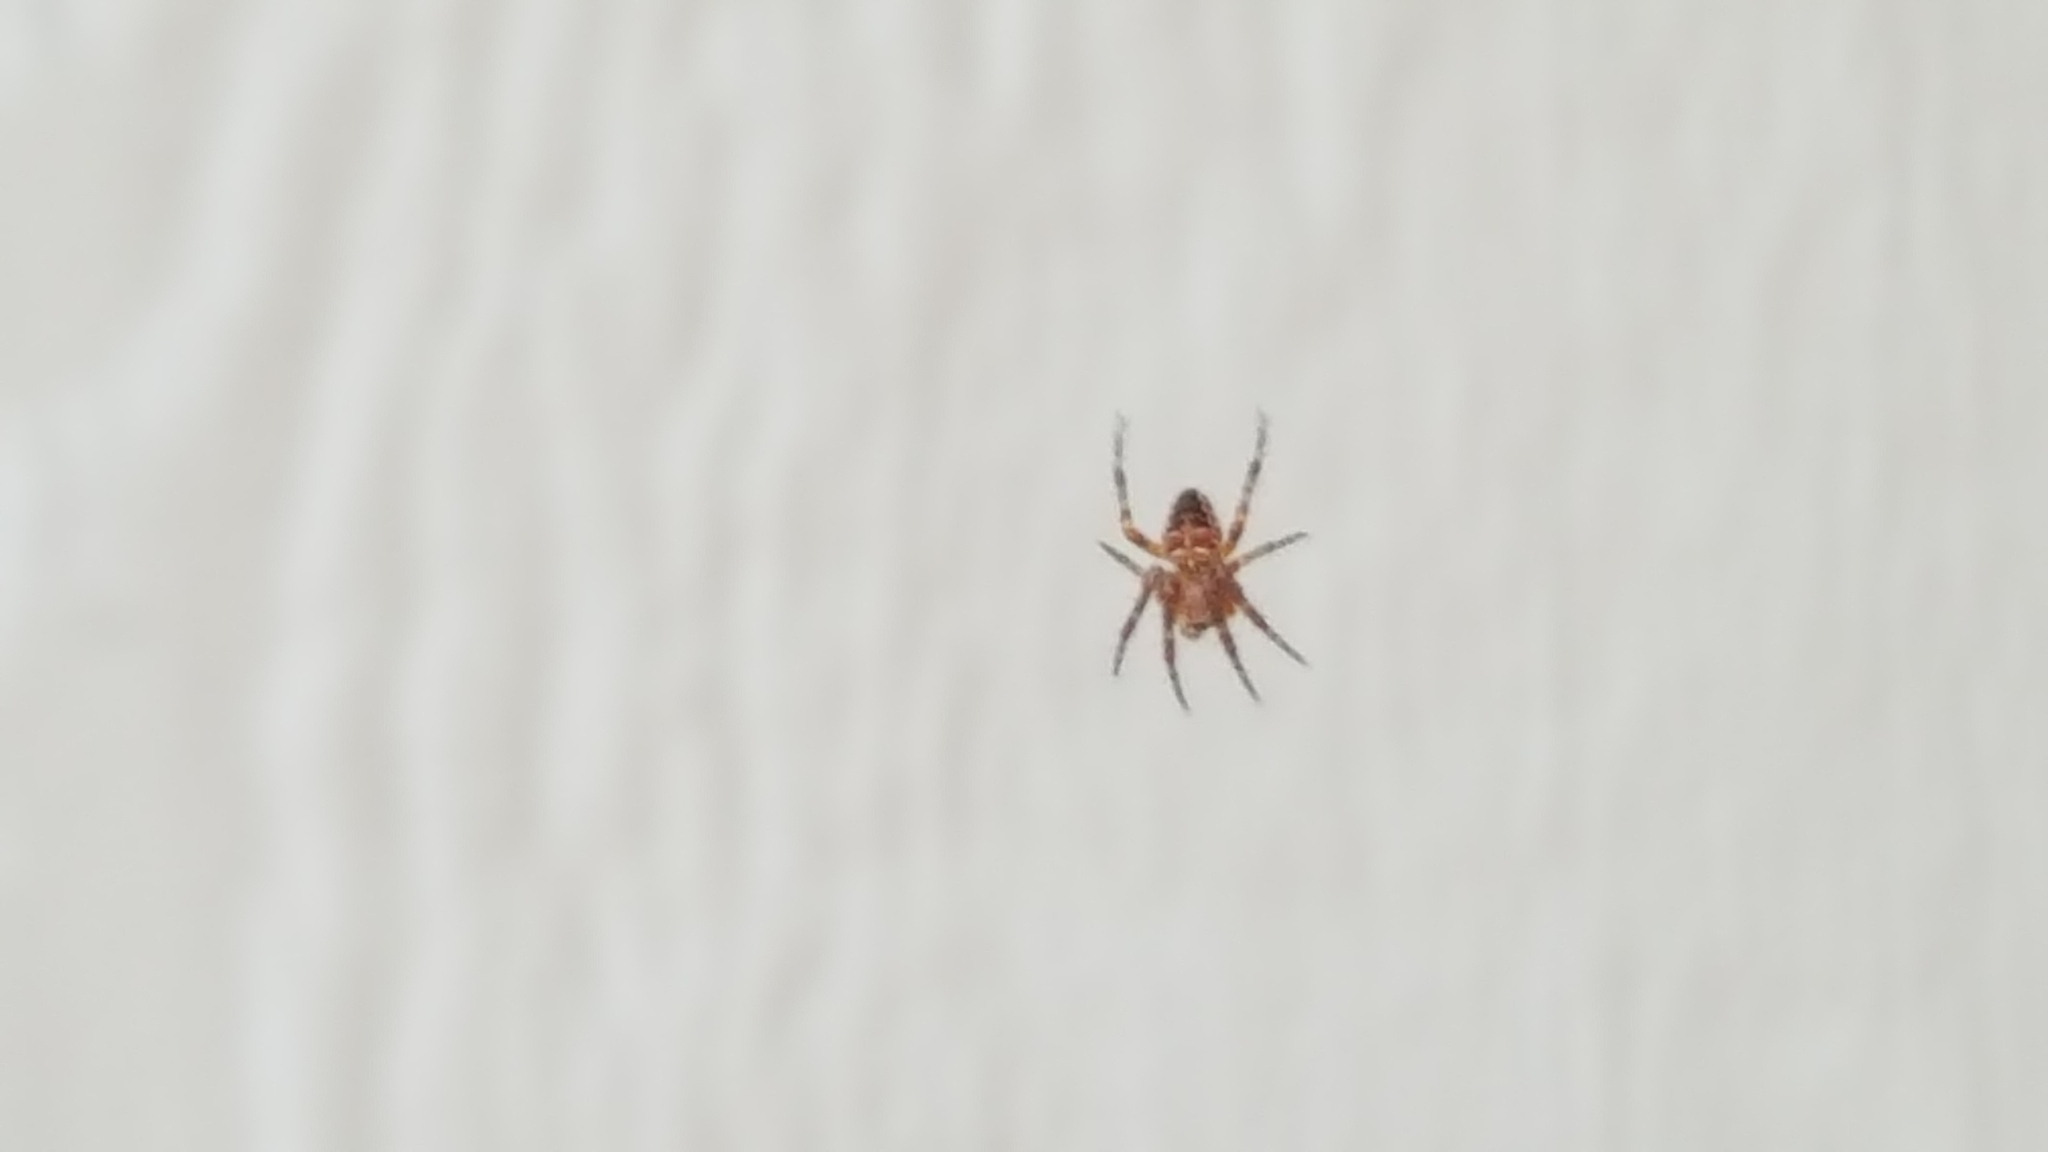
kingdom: Animalia
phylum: Arthropoda
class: Arachnida
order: Araneae
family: Araneidae
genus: Araneus
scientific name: Araneus diadematus
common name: Cross orbweaver
